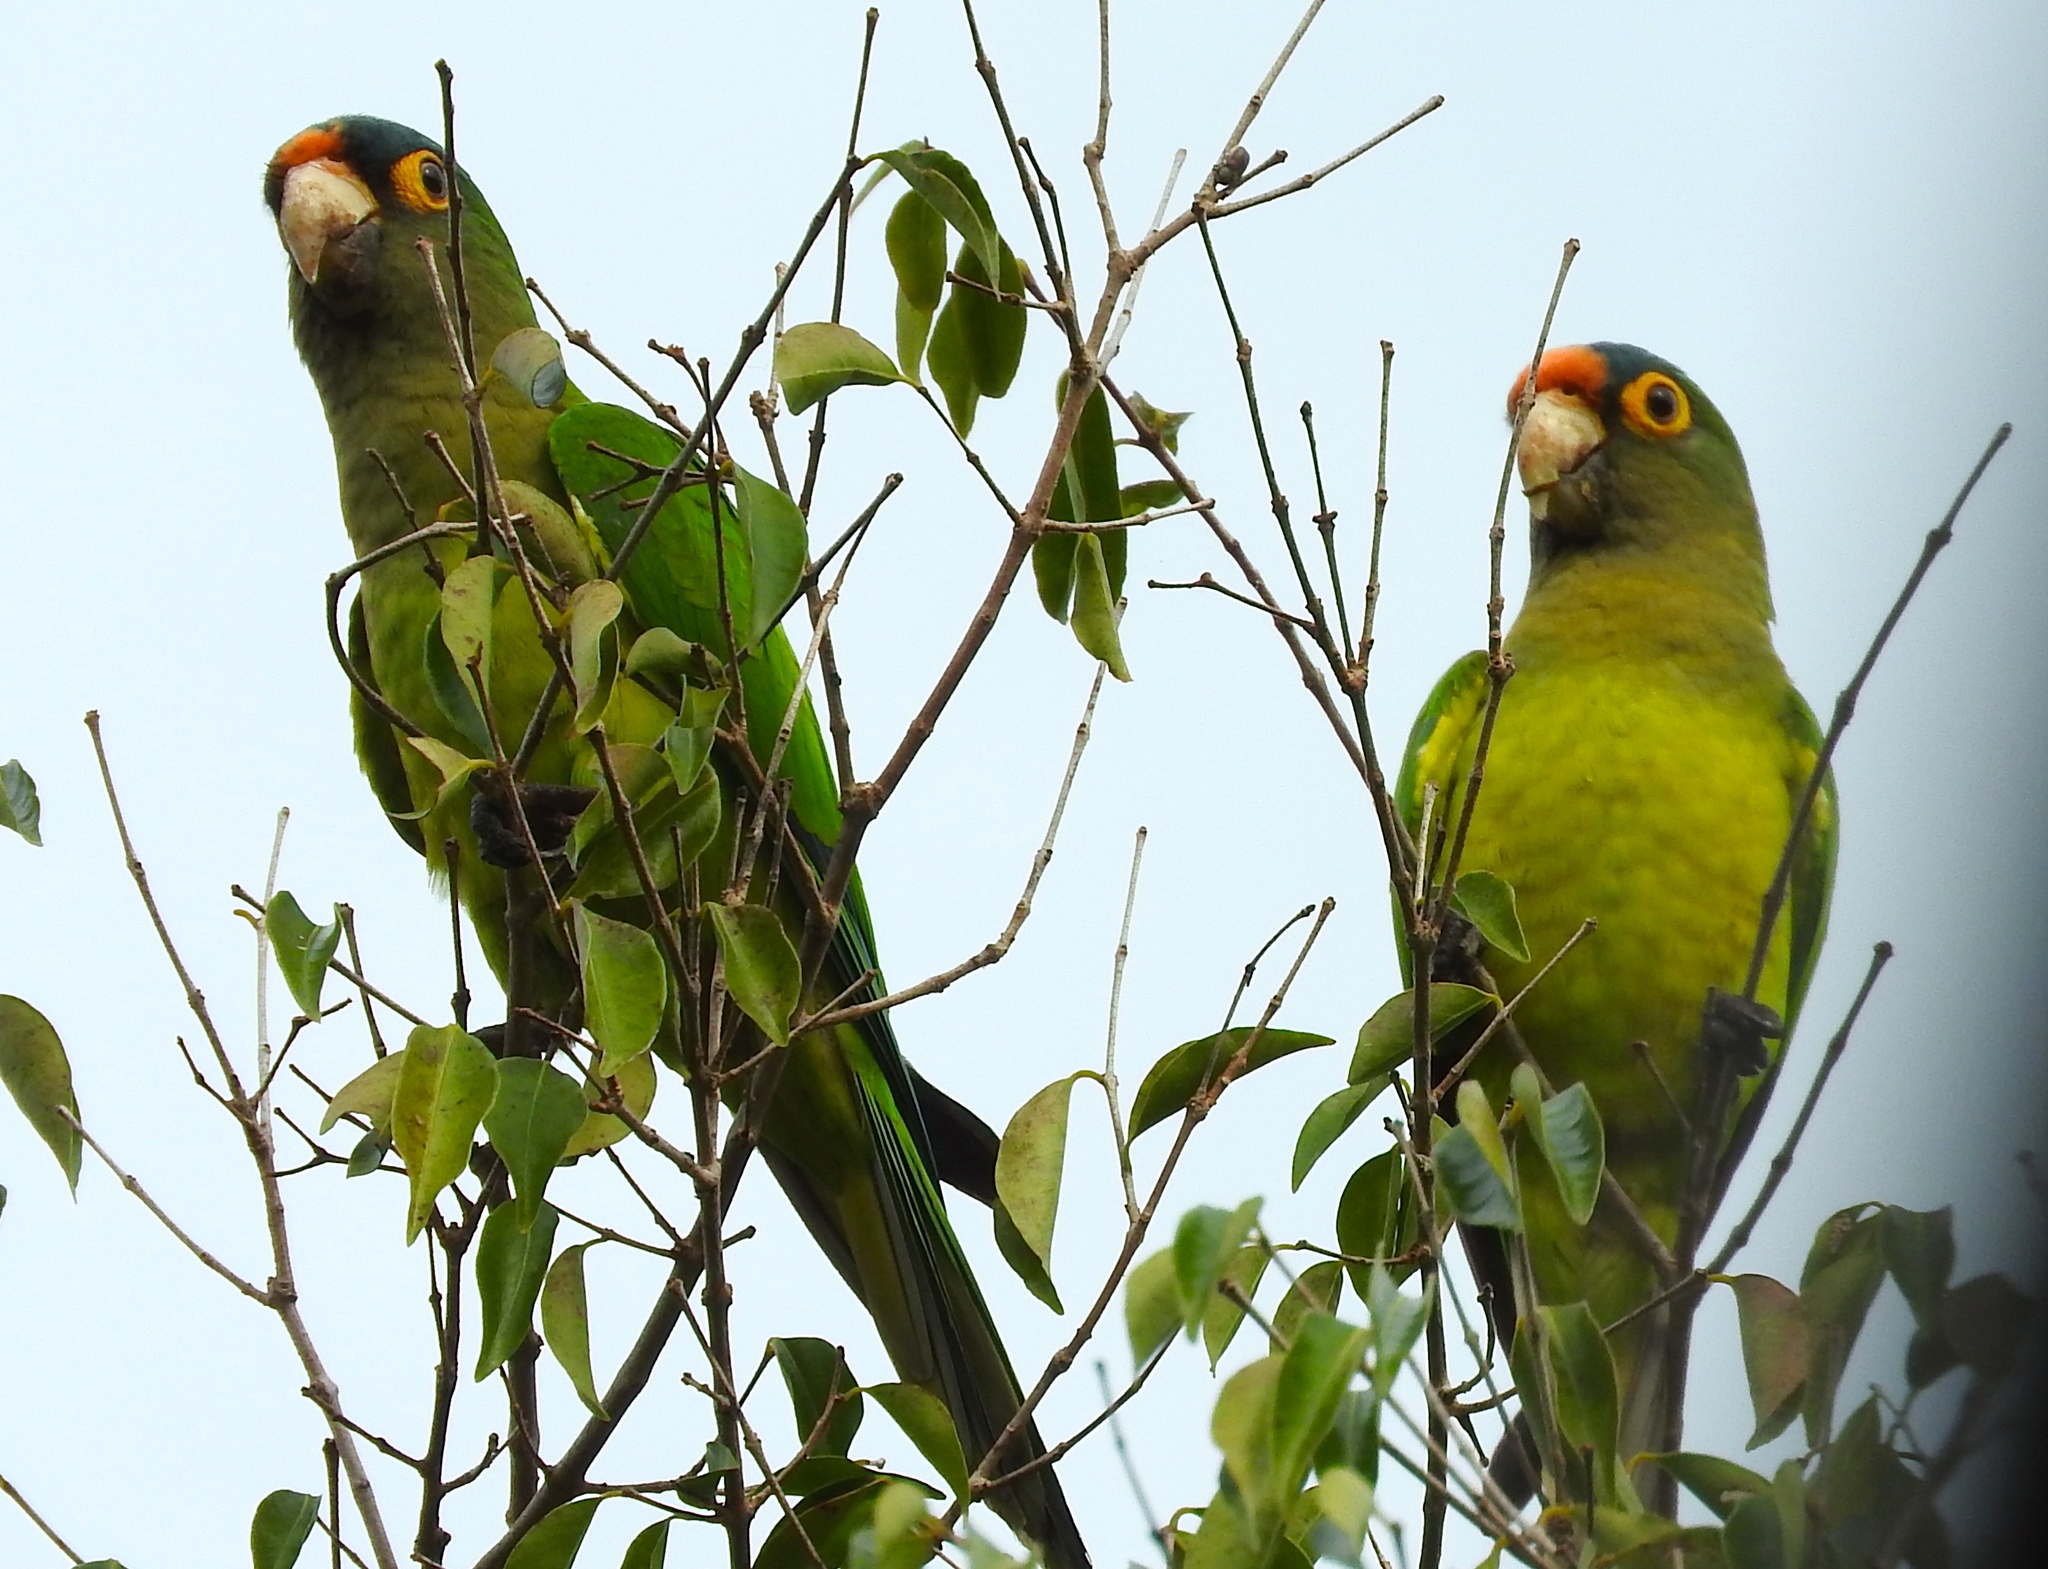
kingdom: Animalia
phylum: Chordata
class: Aves
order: Psittaciformes
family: Psittacidae
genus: Aratinga
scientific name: Aratinga canicularis
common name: Orange-fronted parakeet
